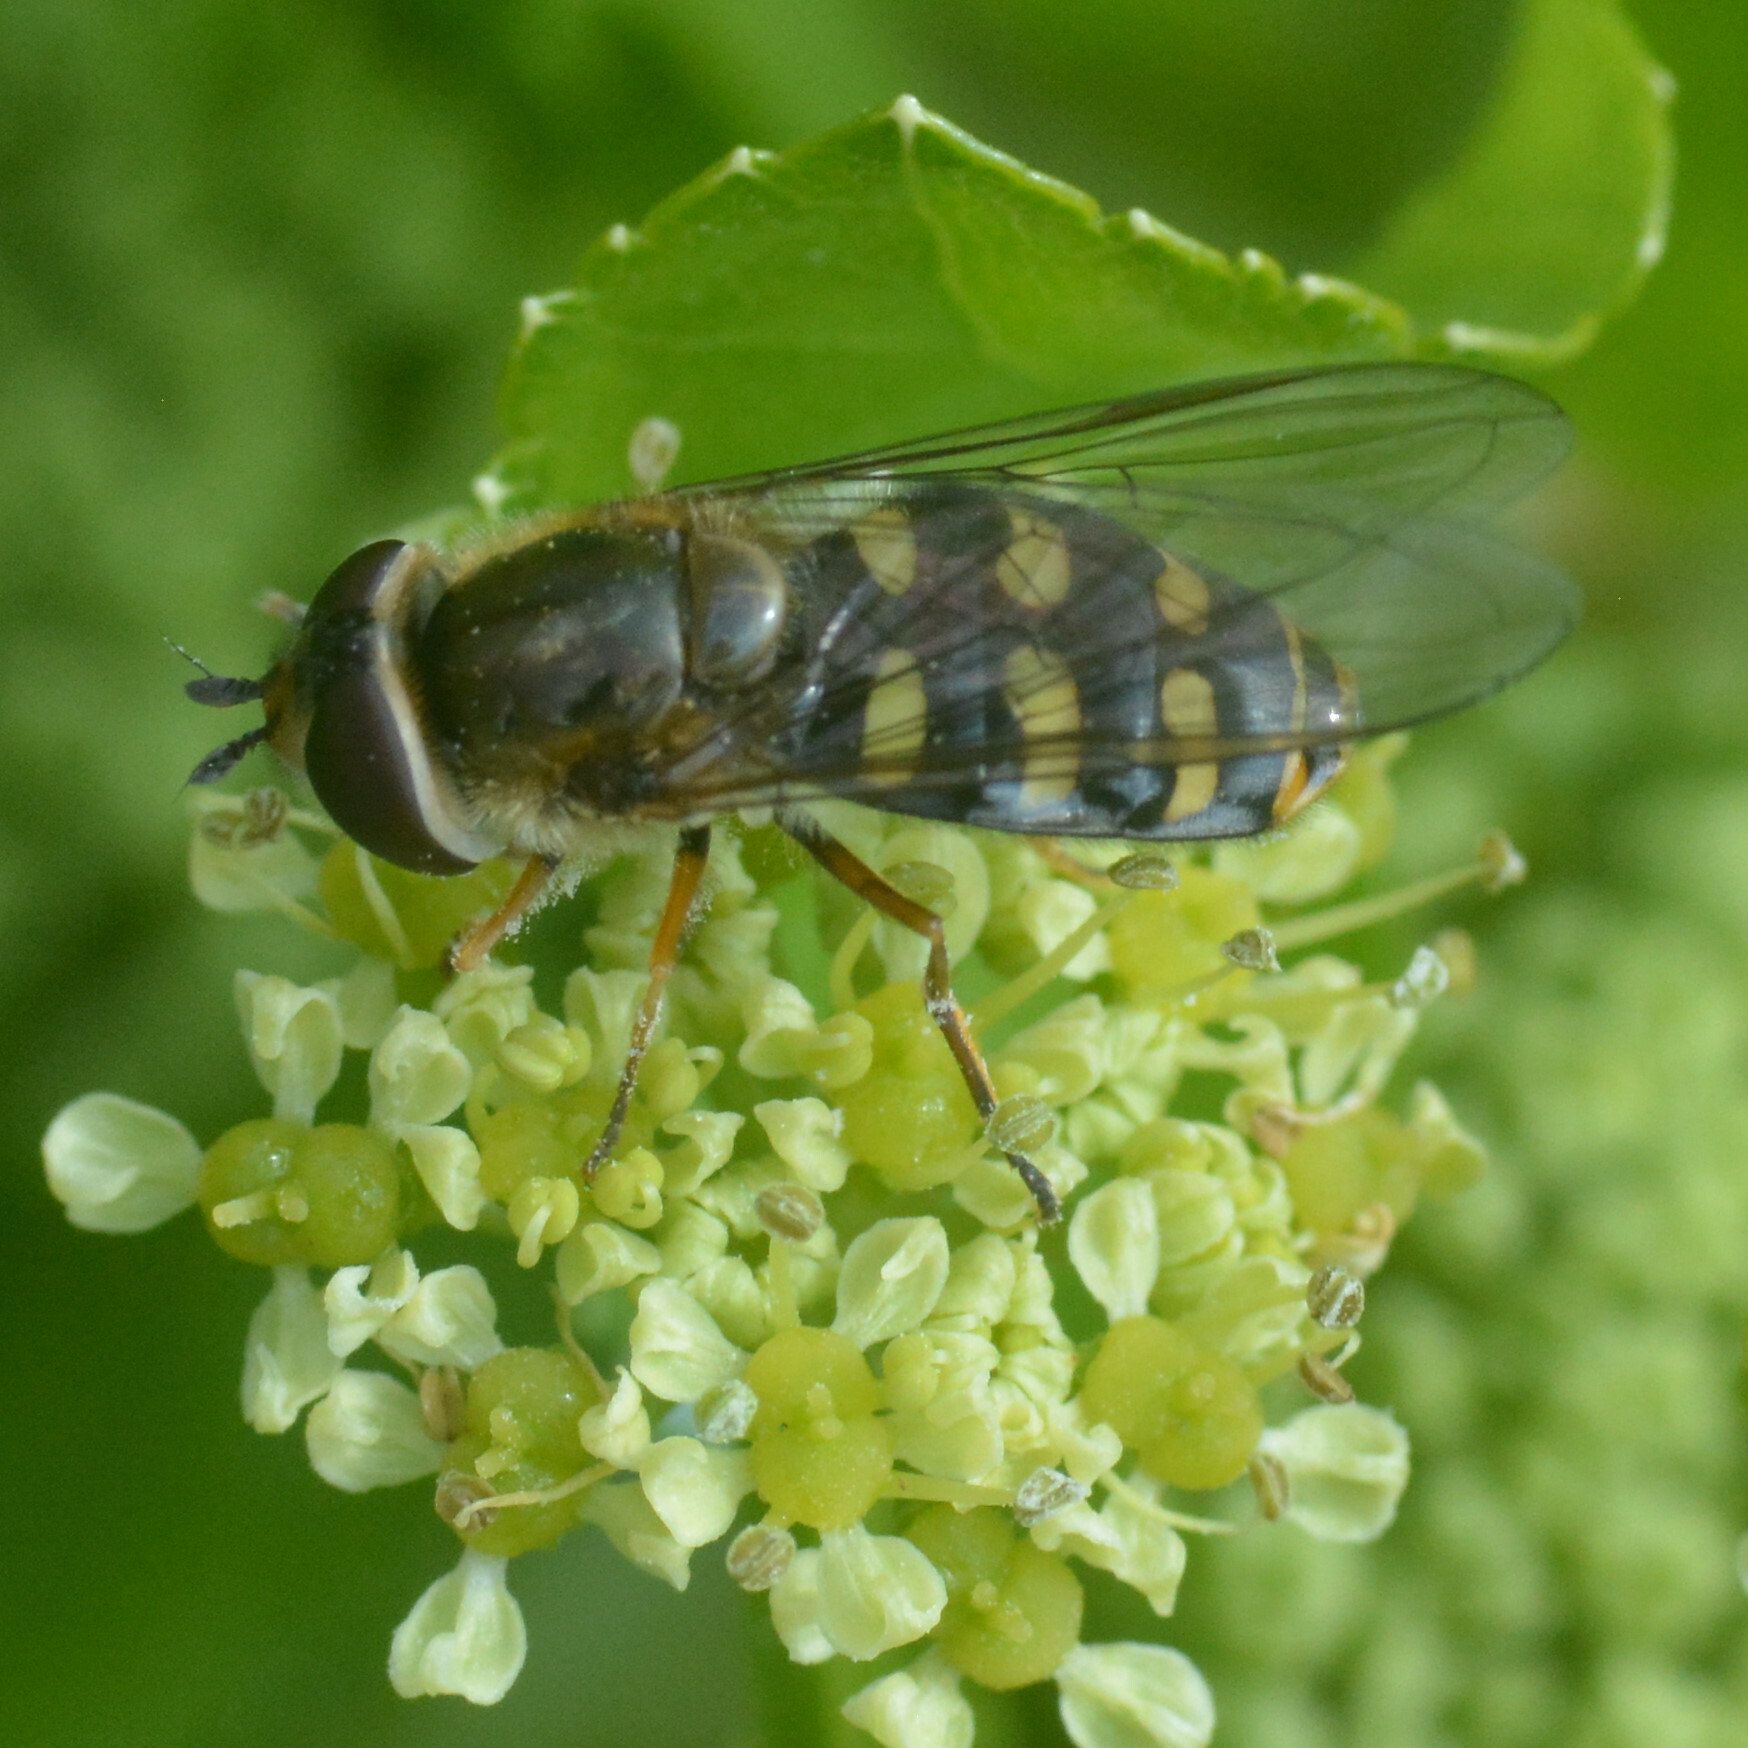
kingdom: Animalia
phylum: Arthropoda
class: Insecta
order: Diptera
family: Syrphidae
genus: Eupeodes
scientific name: Eupeodes
